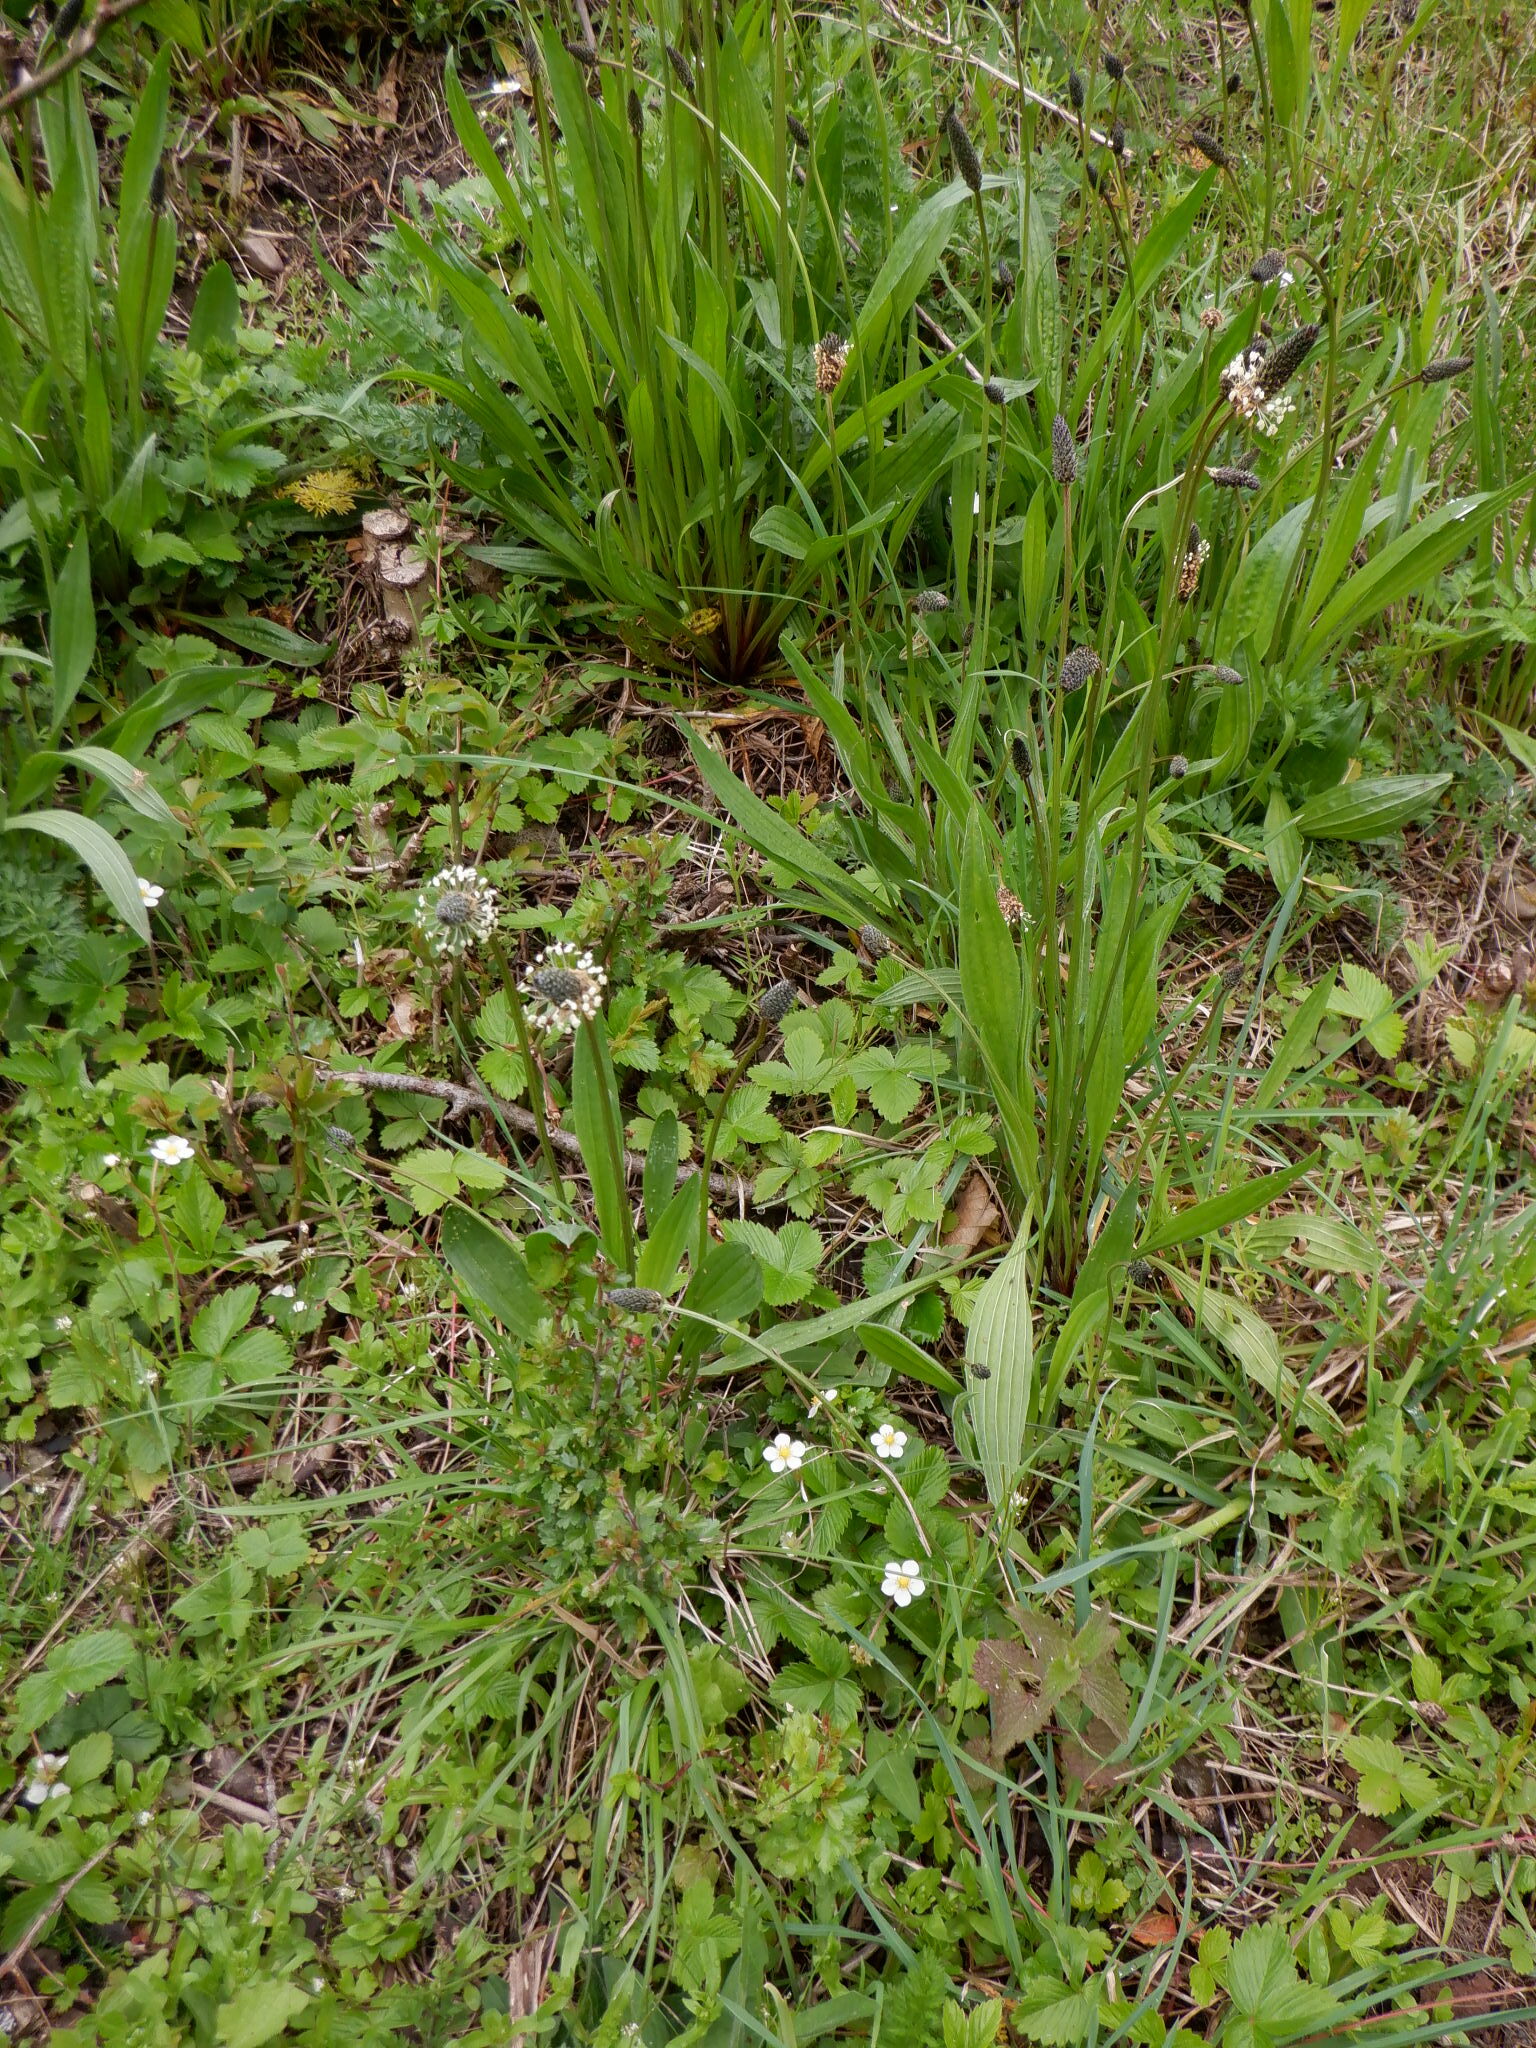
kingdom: Plantae
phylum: Tracheophyta
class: Magnoliopsida
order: Lamiales
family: Plantaginaceae
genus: Plantago
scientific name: Plantago lanceolata
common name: Ribwort plantain
